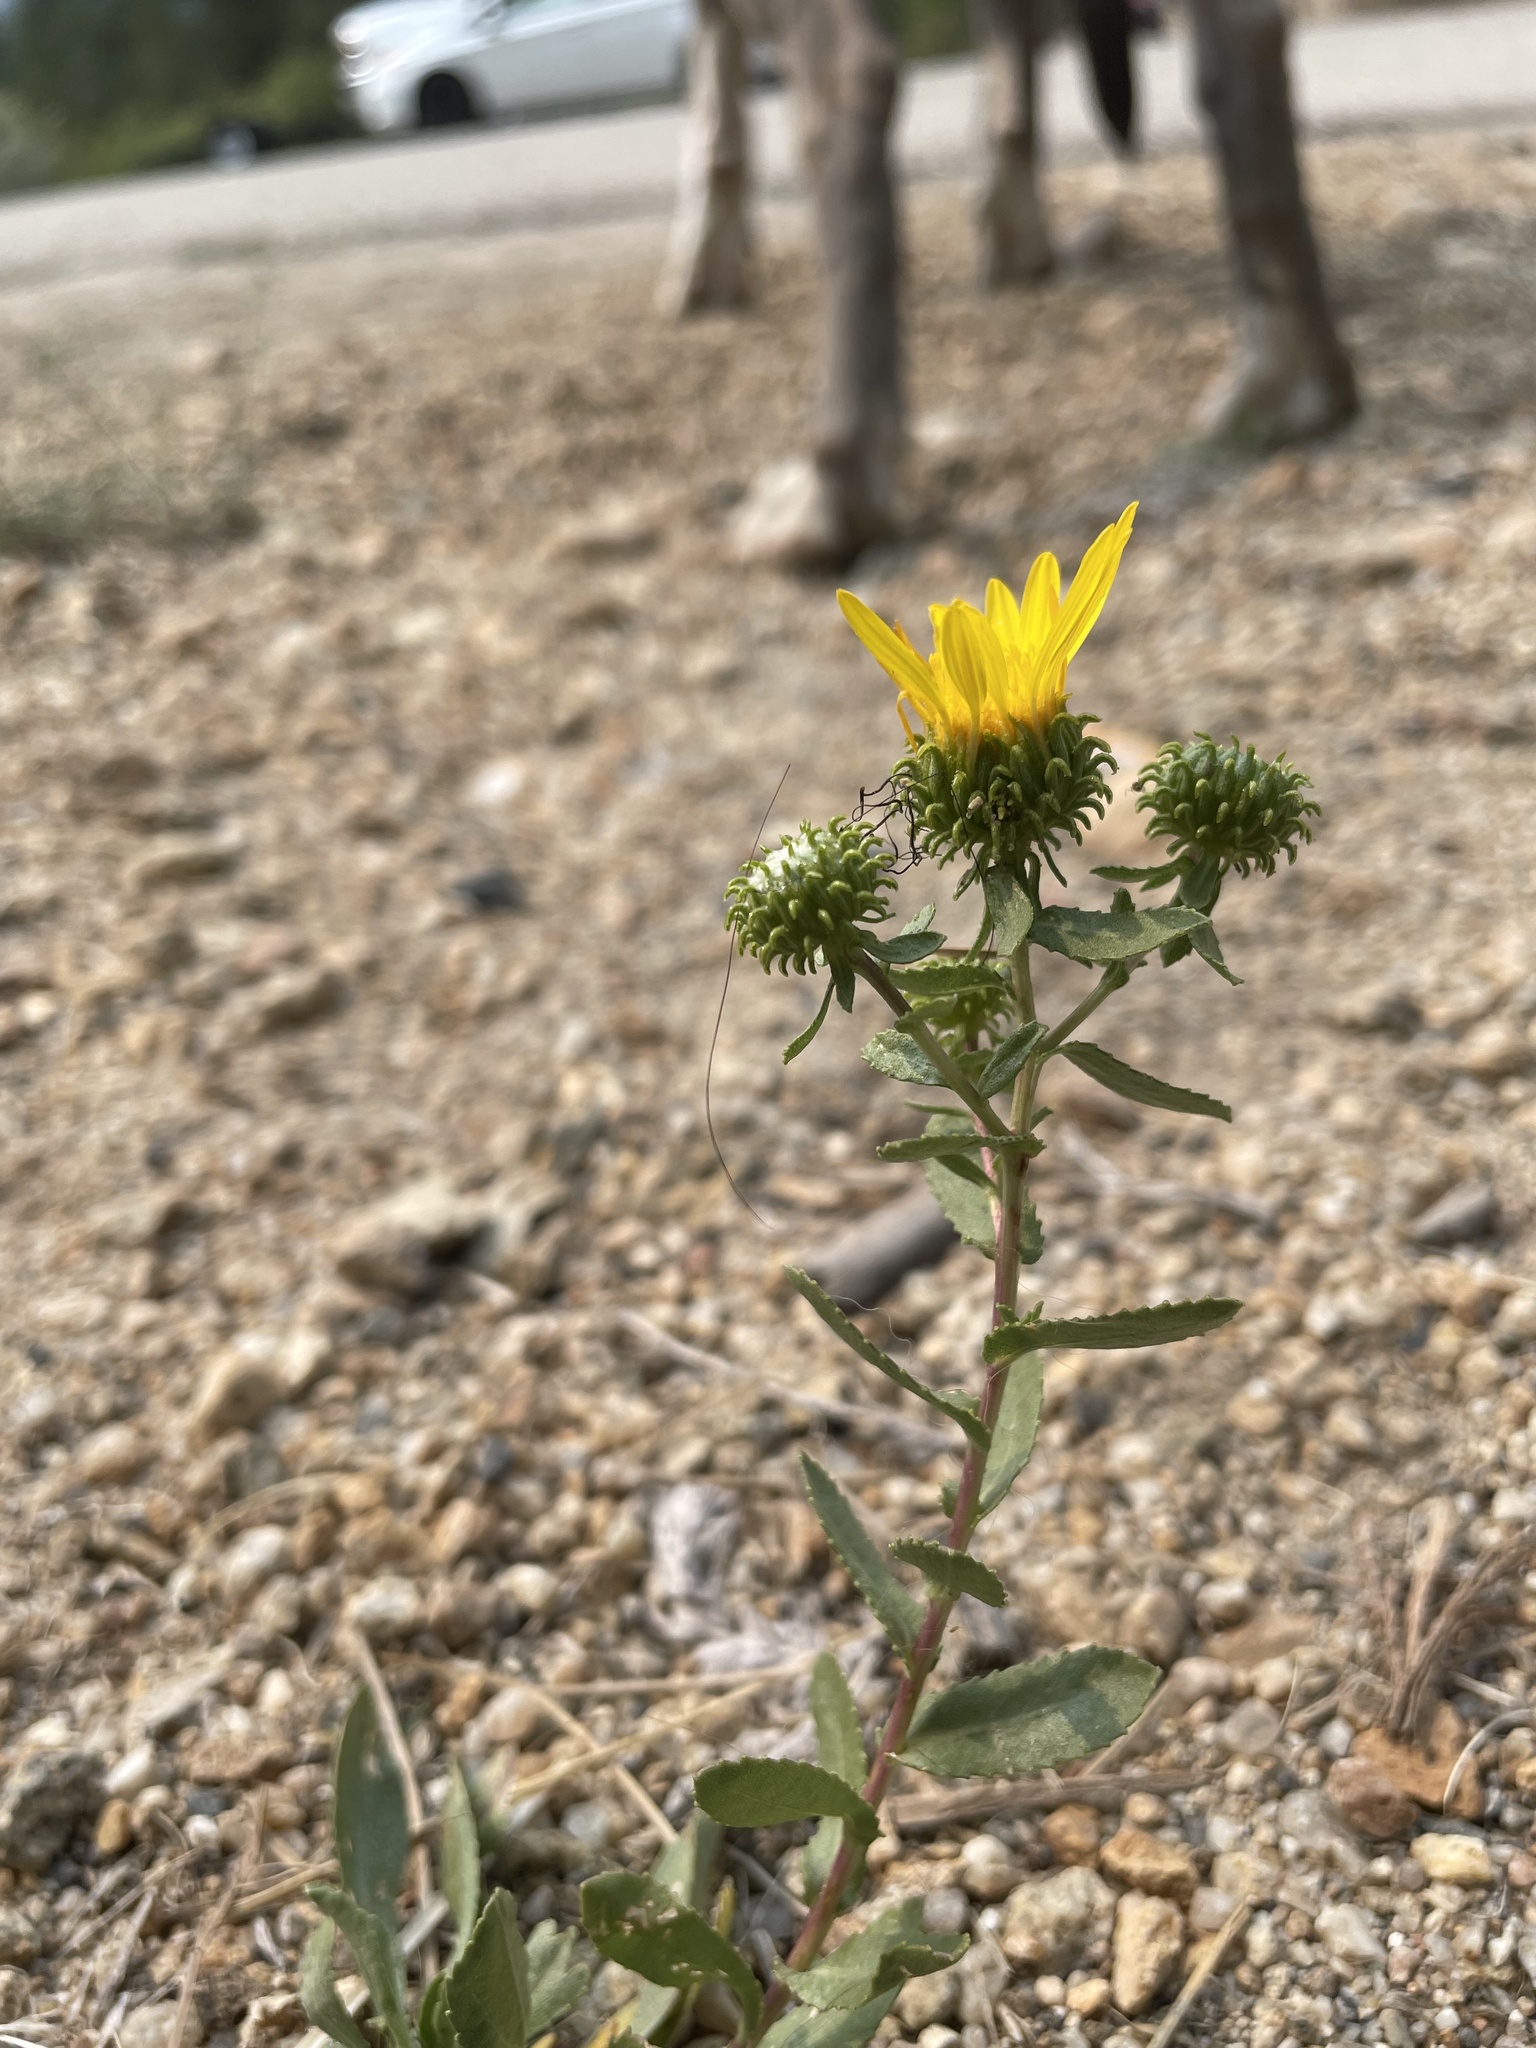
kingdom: Plantae
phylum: Tracheophyta
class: Magnoliopsida
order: Asterales
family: Asteraceae
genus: Grindelia
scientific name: Grindelia squarrosa
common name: Curly-cup gumweed
